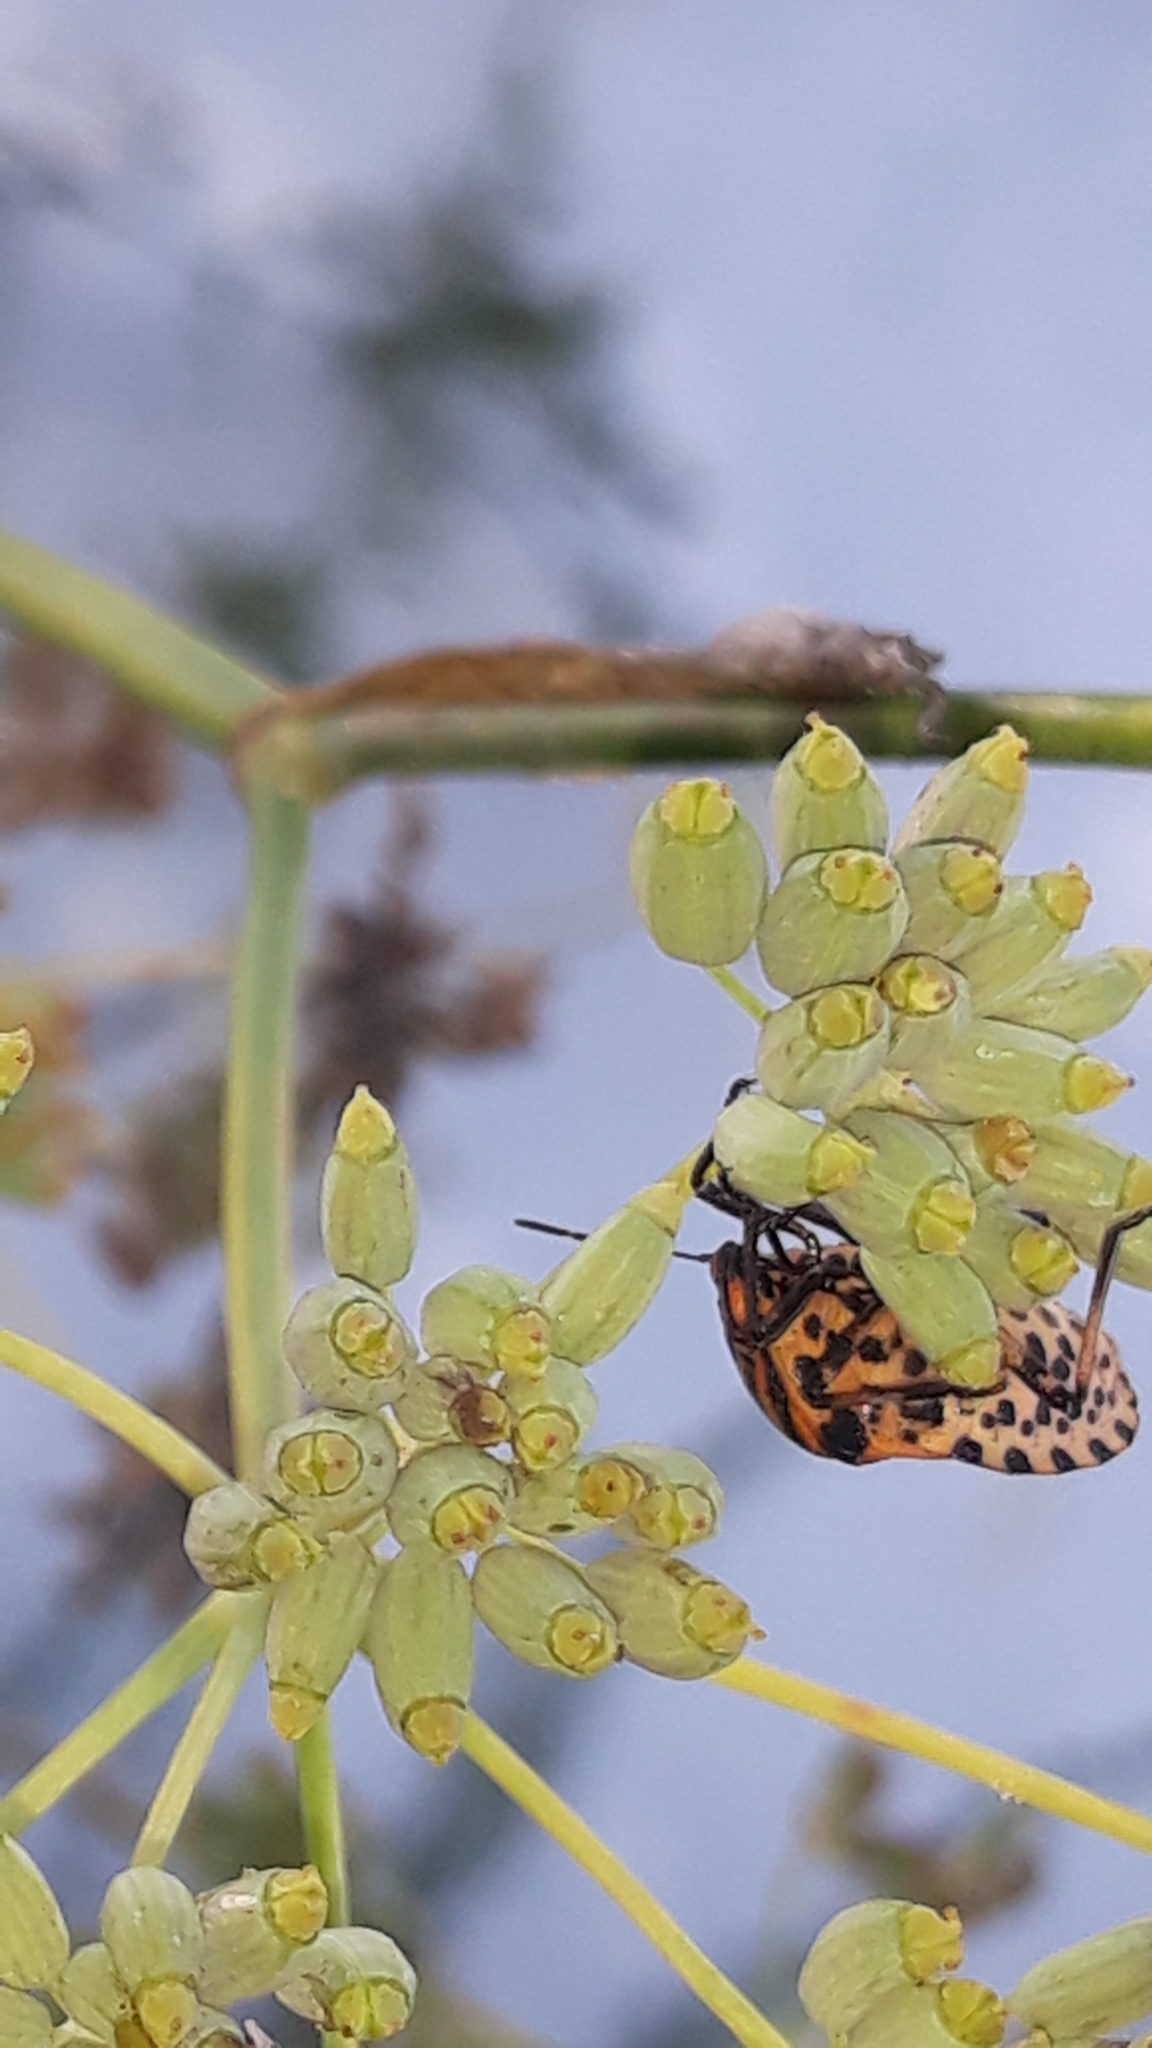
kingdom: Animalia
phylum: Arthropoda
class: Insecta
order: Hemiptera
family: Pentatomidae
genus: Graphosoma
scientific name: Graphosoma italicum
